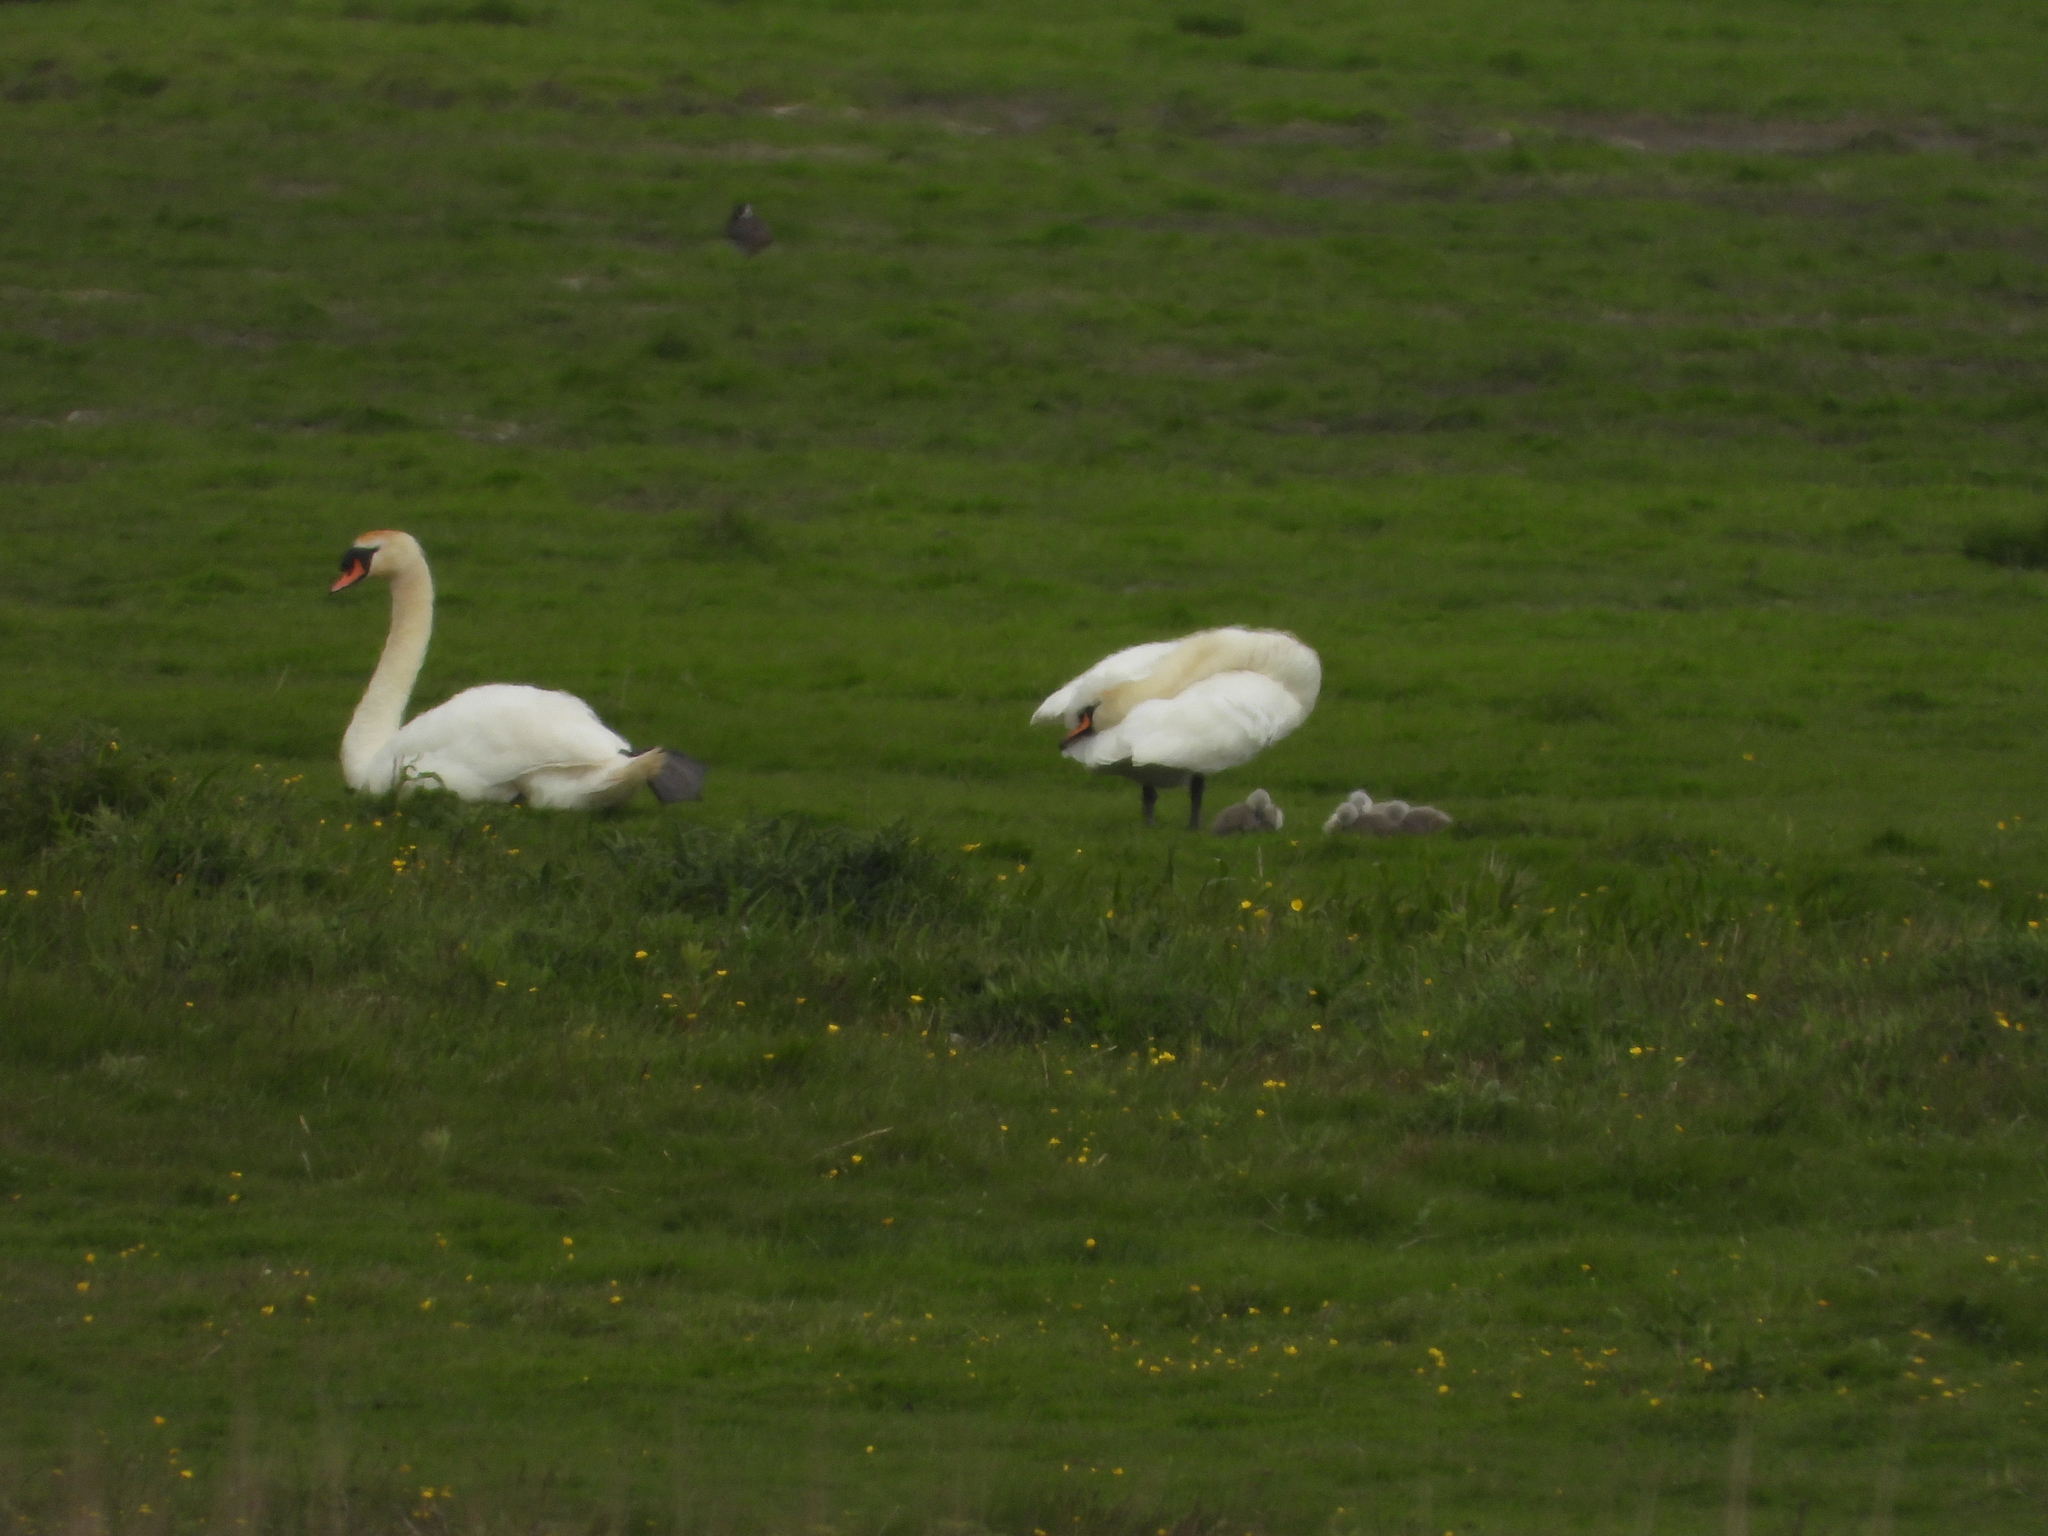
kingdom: Animalia
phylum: Chordata
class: Aves
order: Anseriformes
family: Anatidae
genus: Cygnus
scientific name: Cygnus olor
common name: Mute swan
